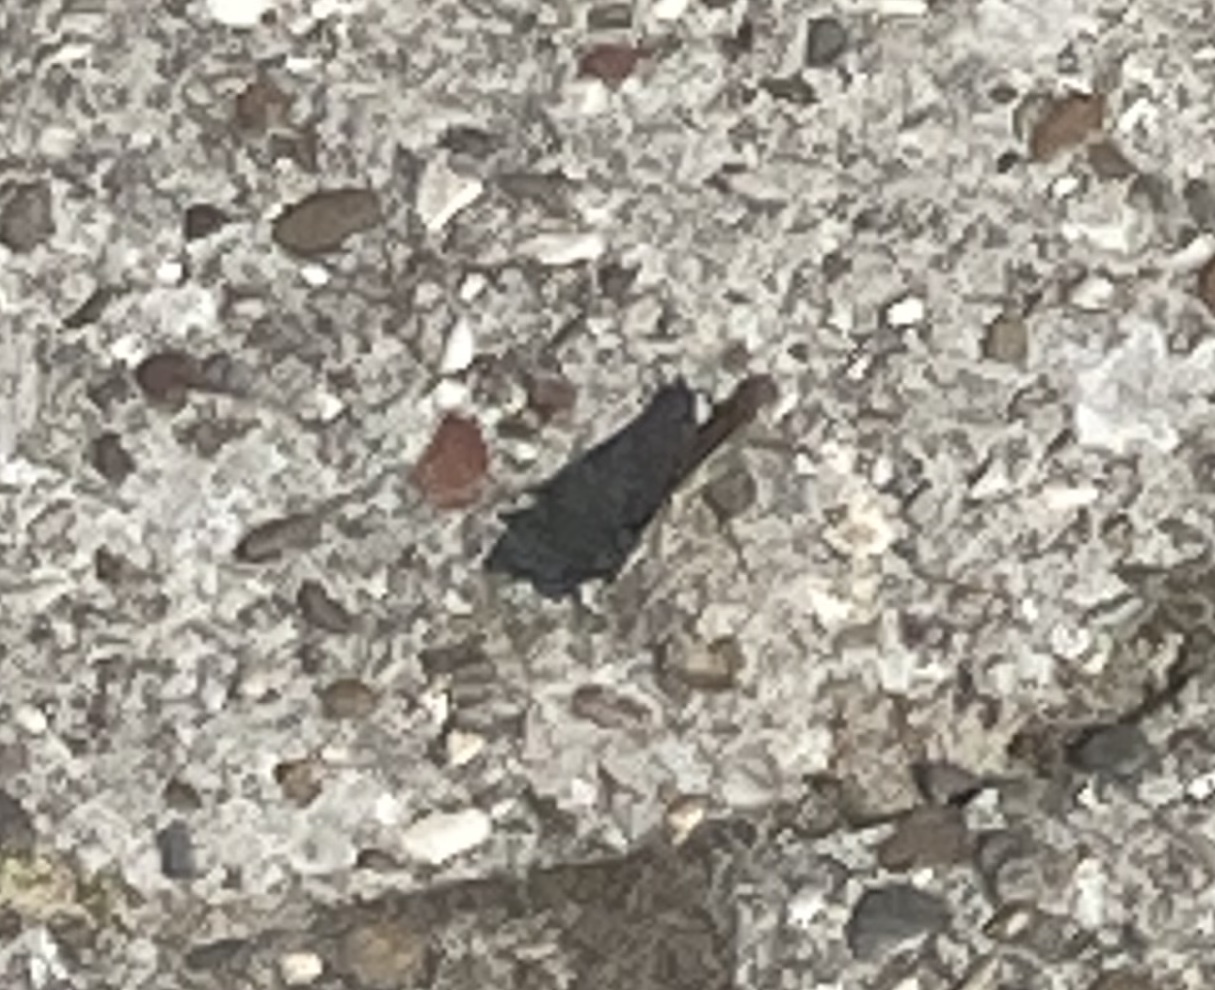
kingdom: Animalia
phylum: Arthropoda
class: Insecta
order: Lepidoptera
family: Nymphalidae
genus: Hipparchia
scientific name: Hipparchia semele
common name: Grayling
